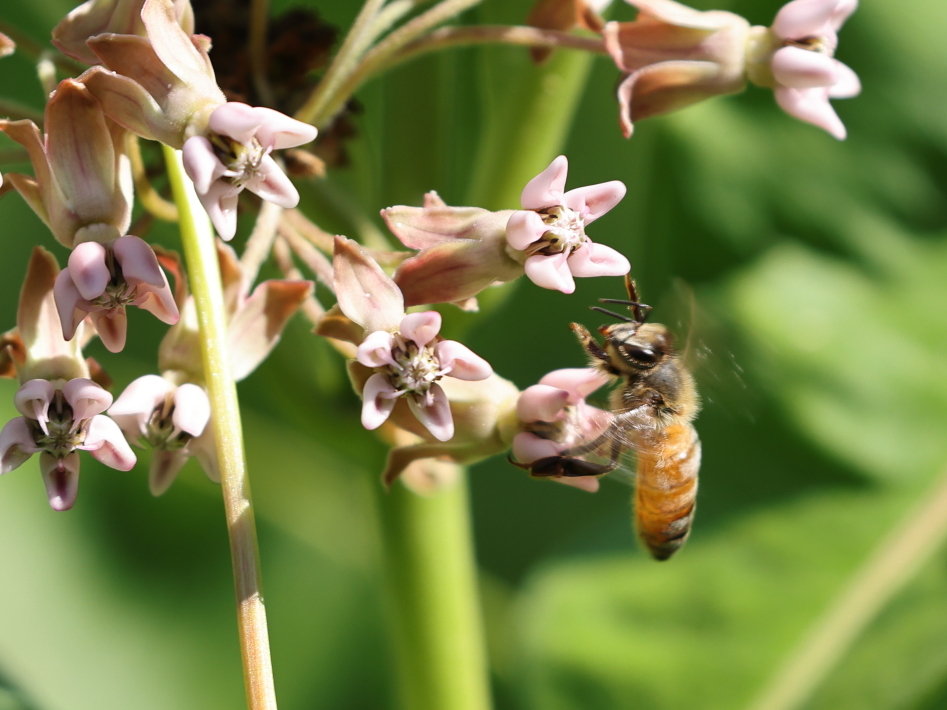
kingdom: Animalia
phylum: Arthropoda
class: Insecta
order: Hymenoptera
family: Apidae
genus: Apis
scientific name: Apis mellifera
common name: Honey bee
